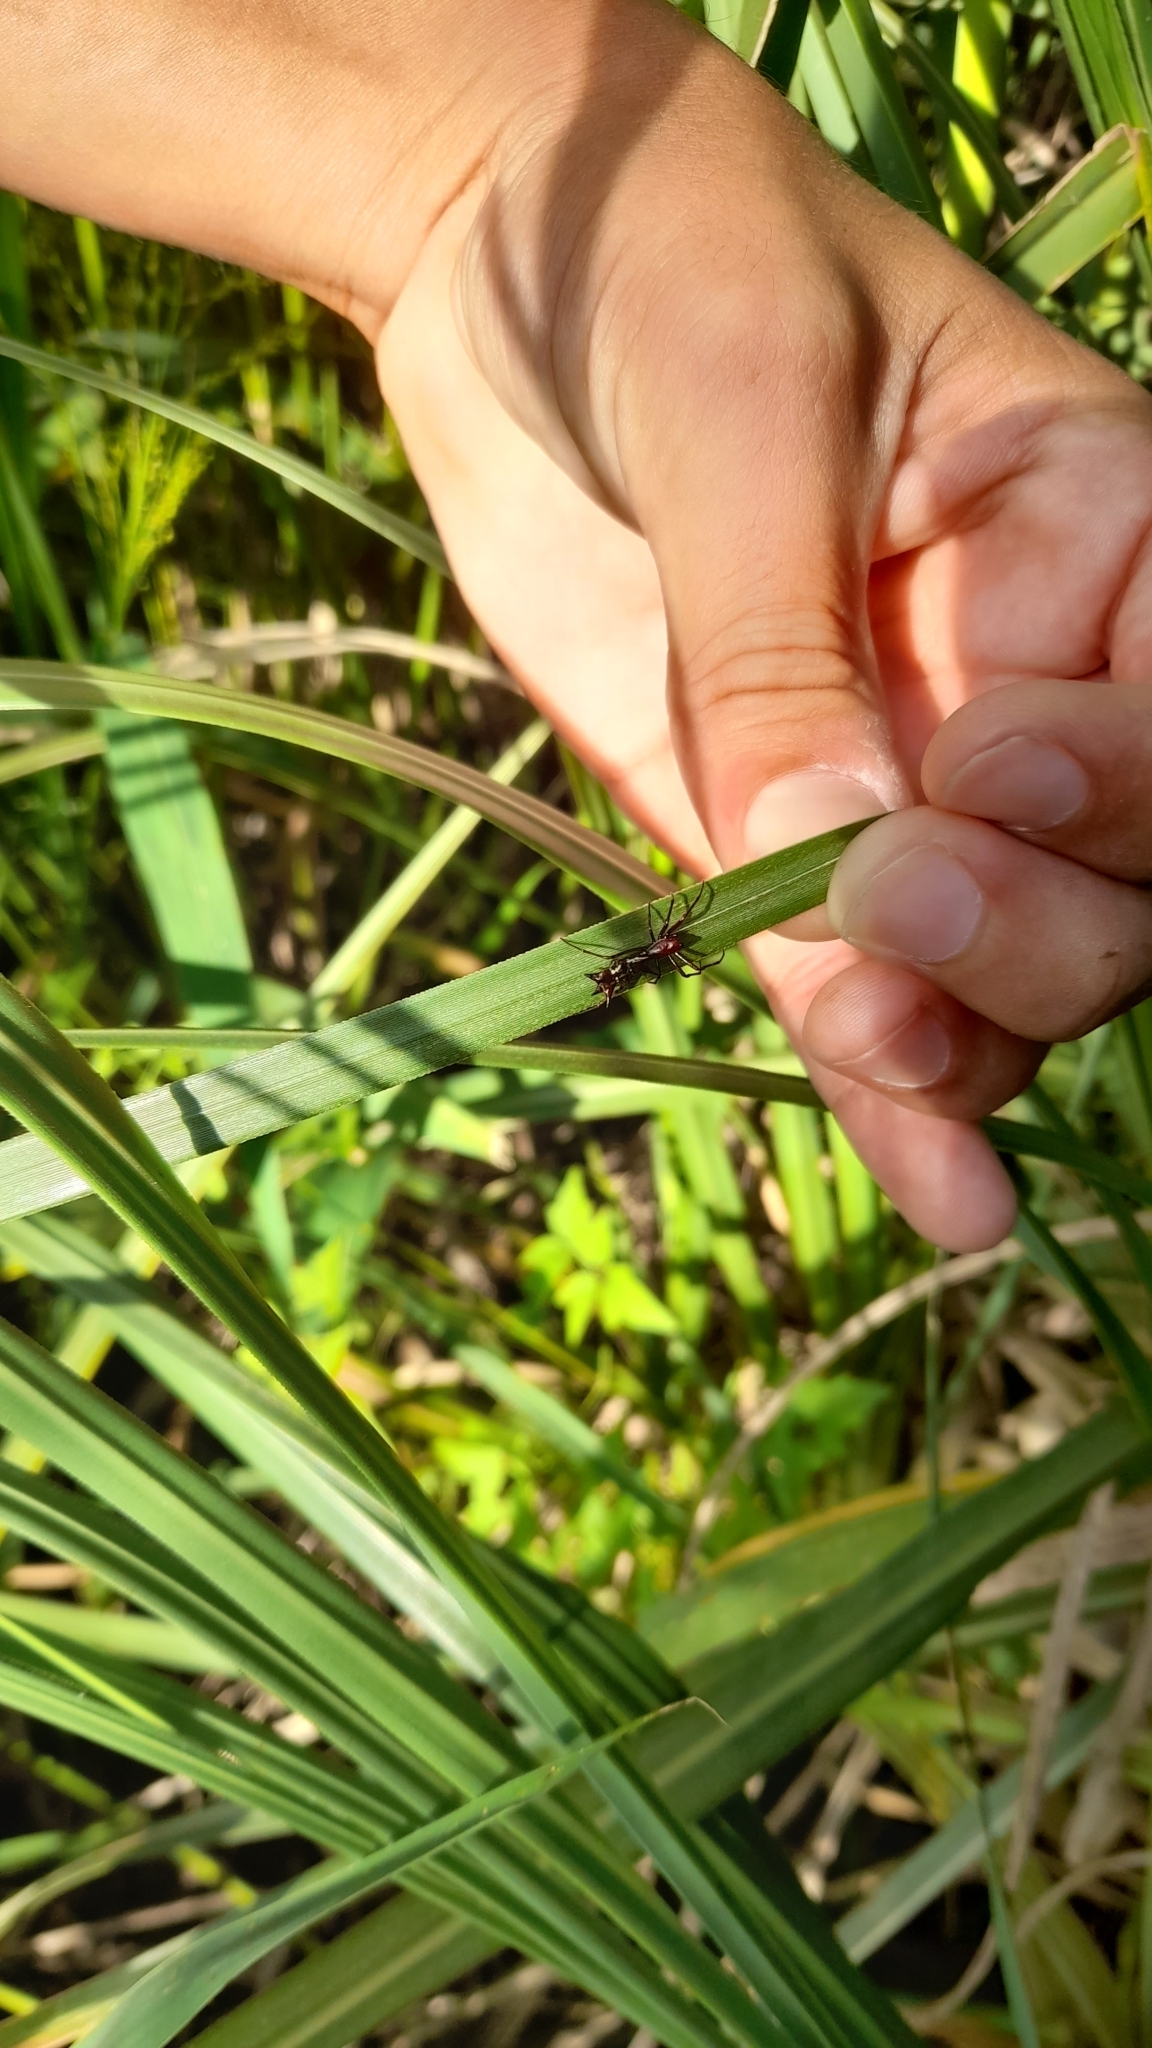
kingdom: Animalia
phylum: Arthropoda
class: Arachnida
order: Araneae
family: Araneidae
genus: Micrathena
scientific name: Micrathena swainsoni
